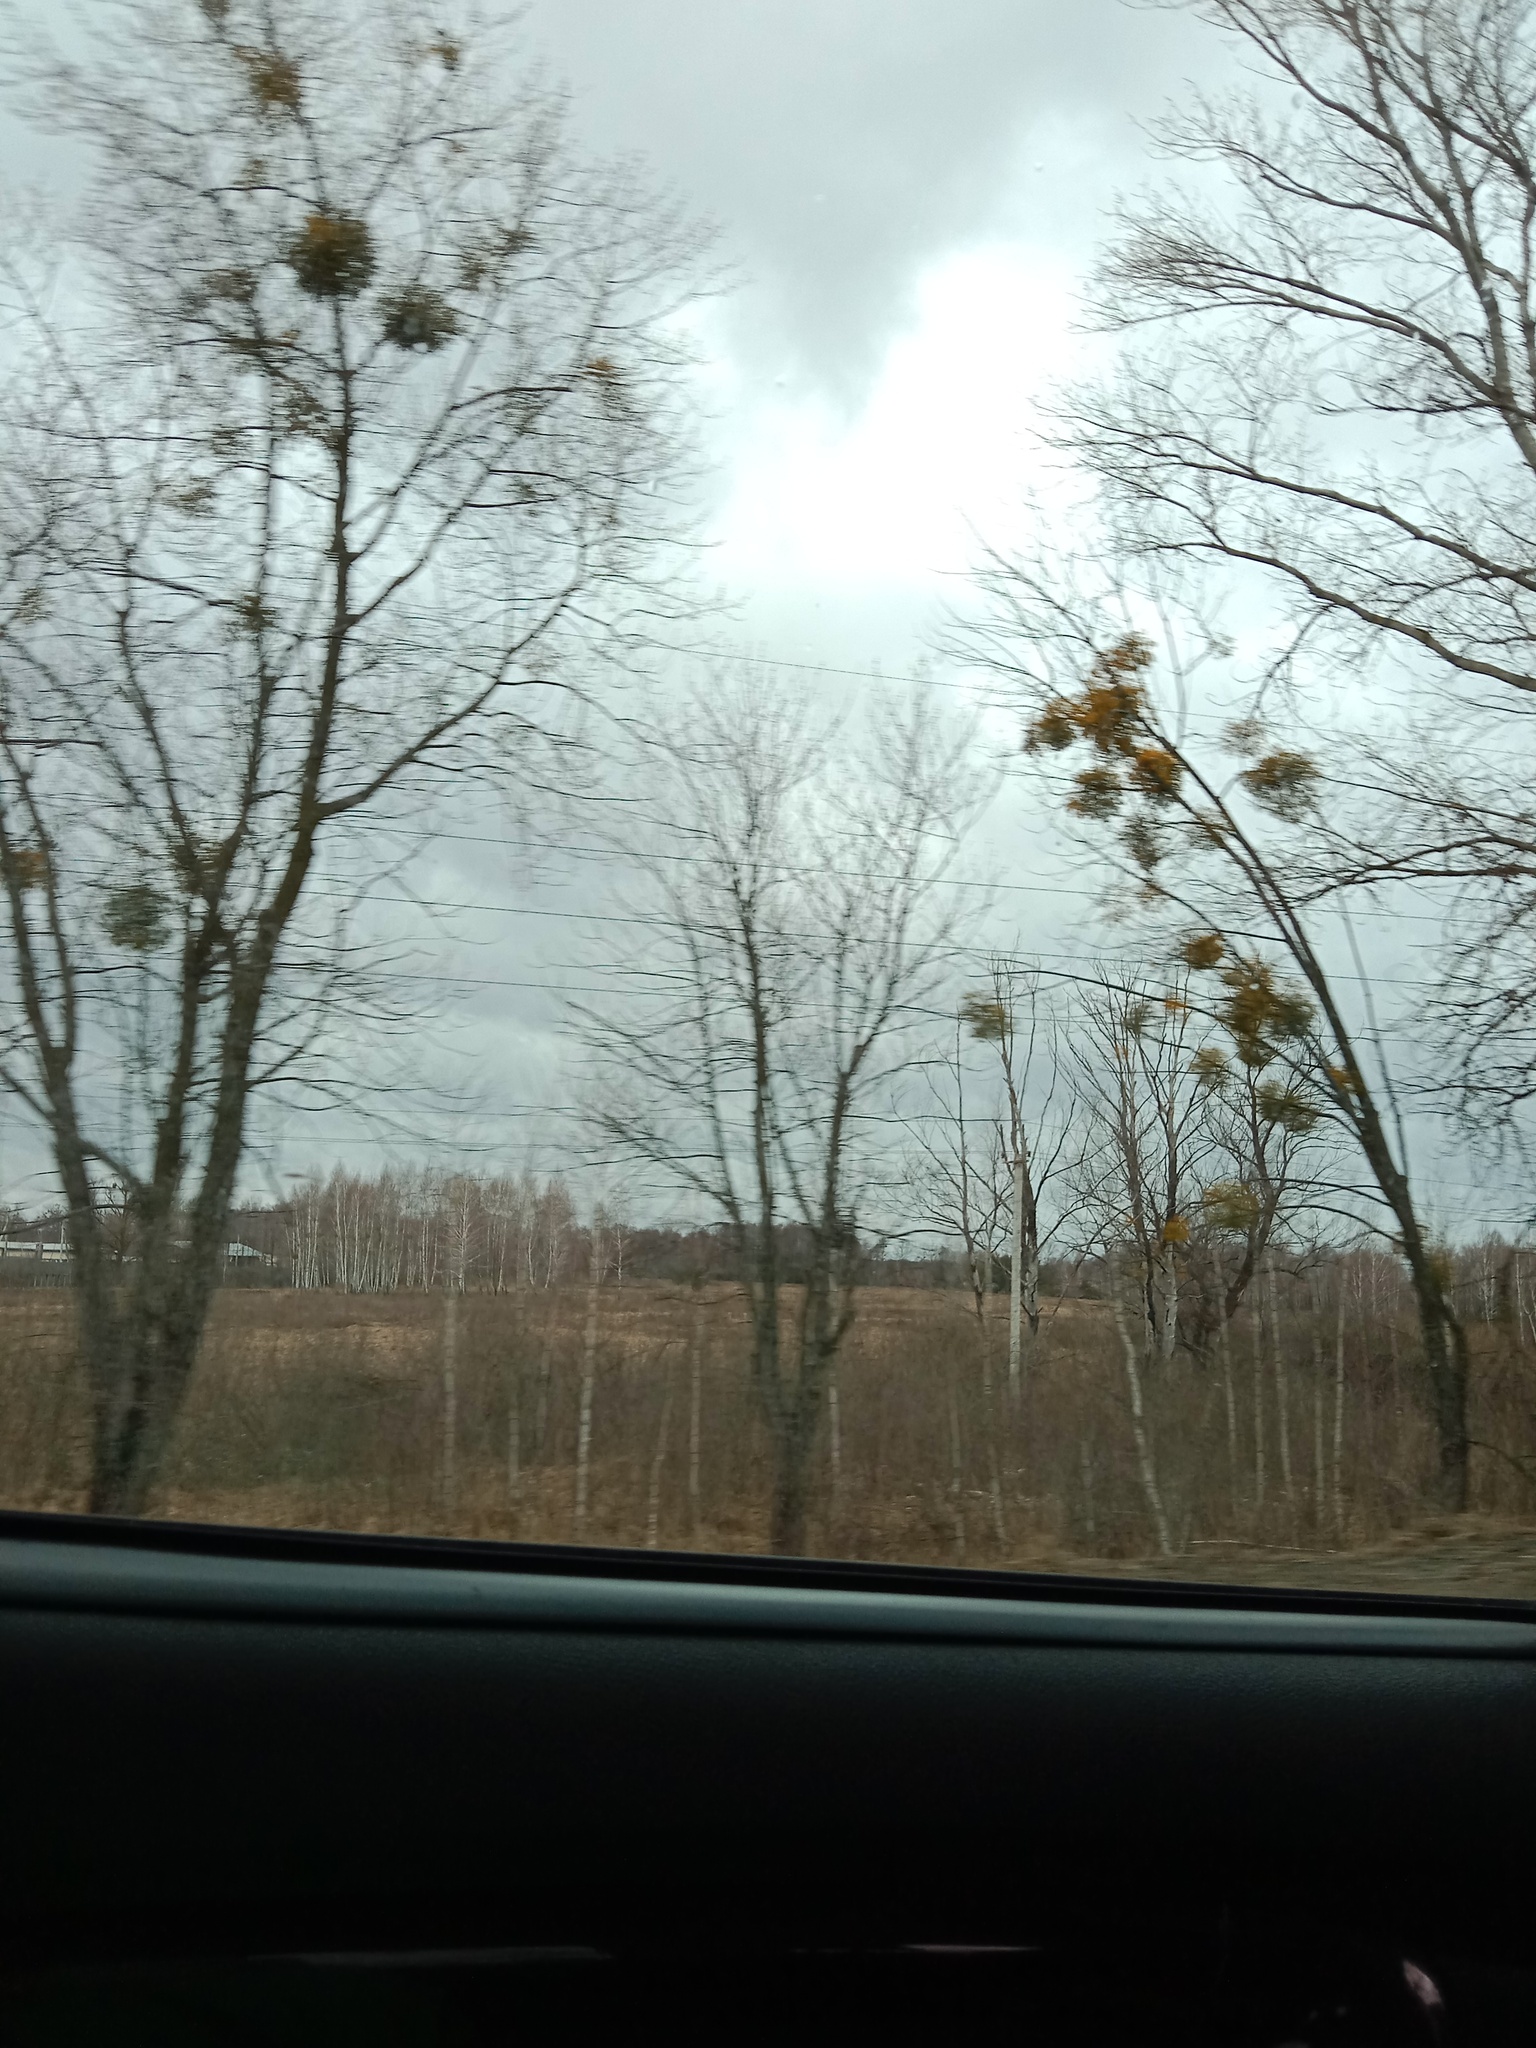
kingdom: Plantae
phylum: Tracheophyta
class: Magnoliopsida
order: Santalales
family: Viscaceae
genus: Viscum
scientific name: Viscum album
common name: Mistletoe
